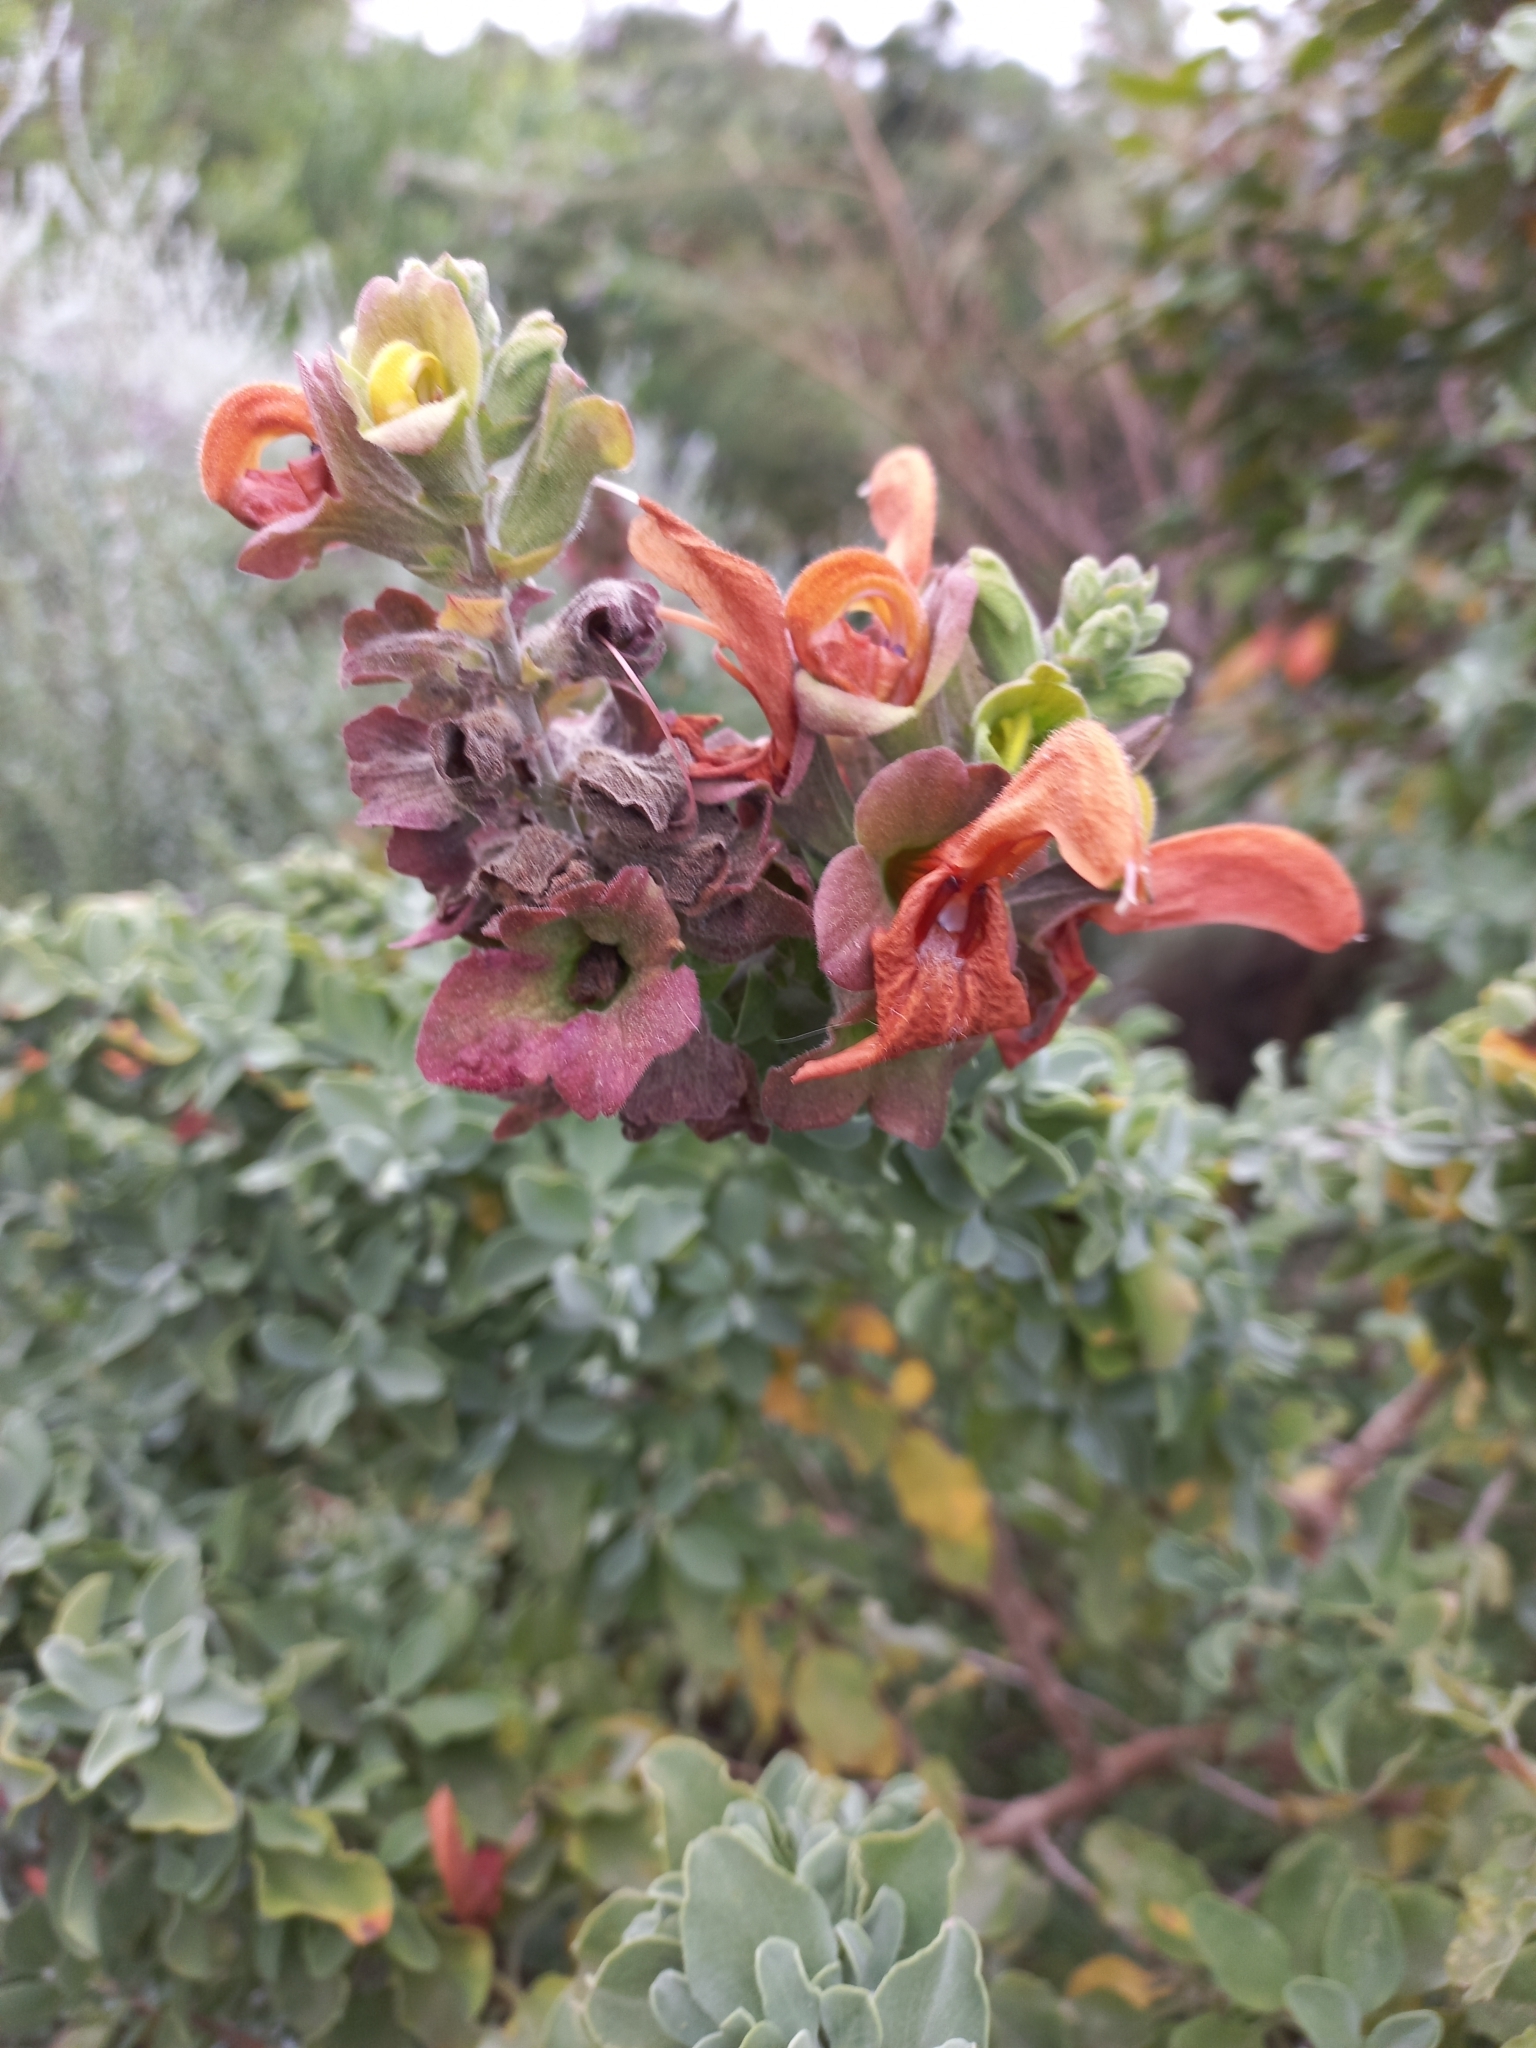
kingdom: Plantae
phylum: Tracheophyta
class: Magnoliopsida
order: Lamiales
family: Lamiaceae
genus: Salvia
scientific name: Salvia aurea
